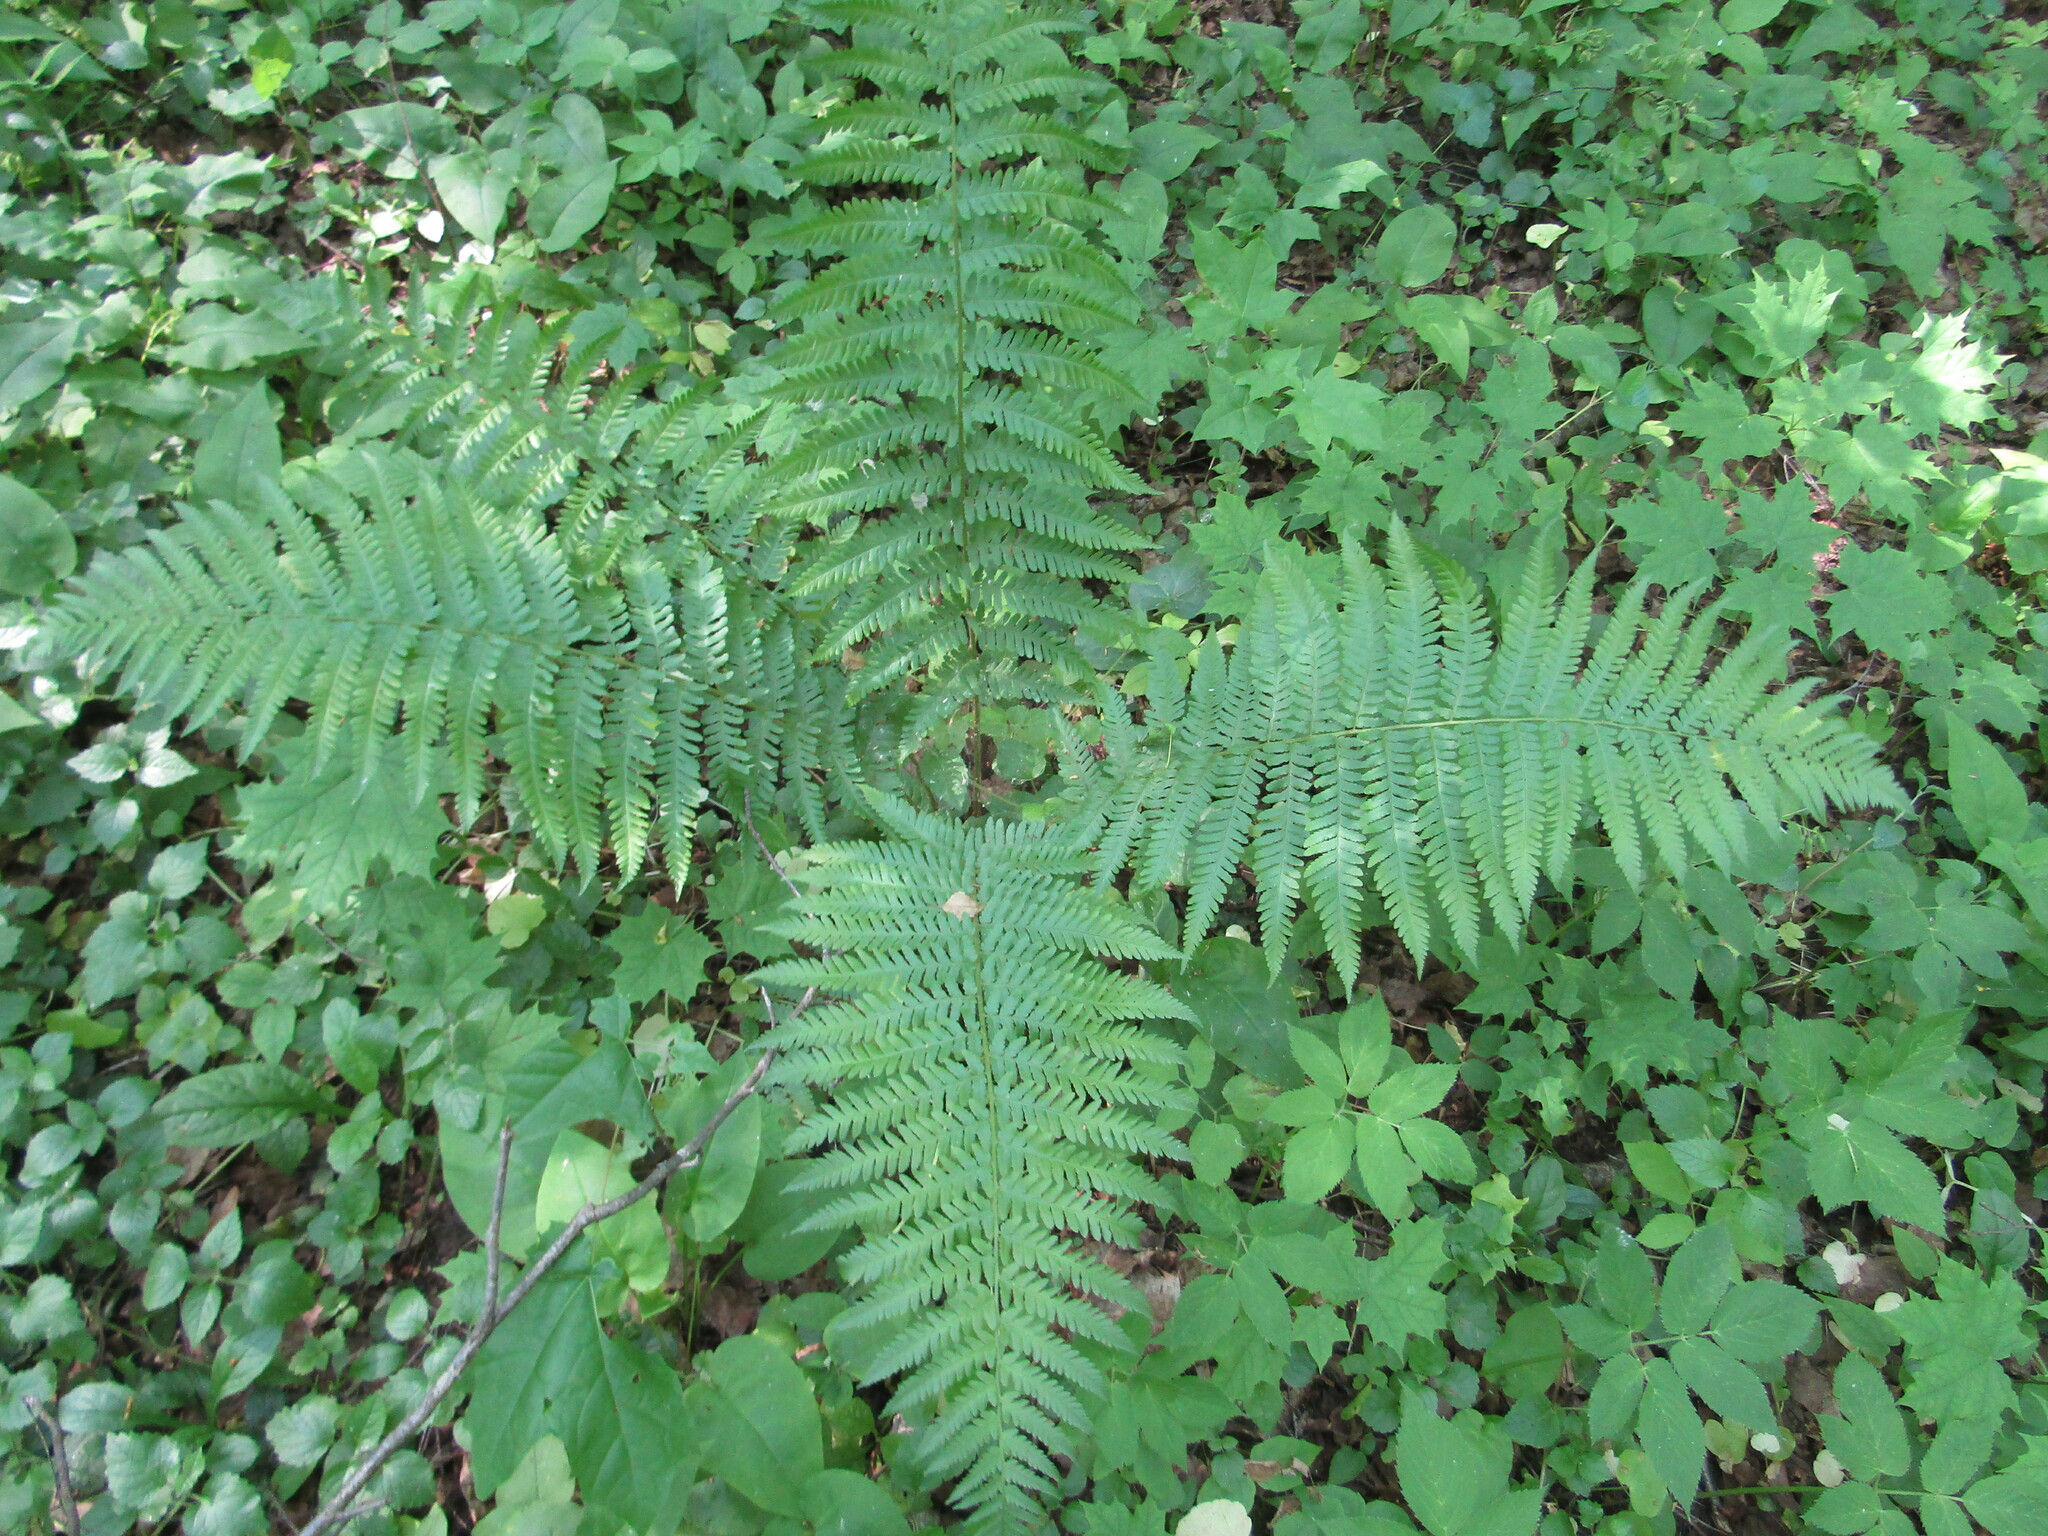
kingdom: Plantae
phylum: Tracheophyta
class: Polypodiopsida
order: Polypodiales
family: Dryopteridaceae
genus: Dryopteris
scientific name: Dryopteris filix-mas
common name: Male fern
